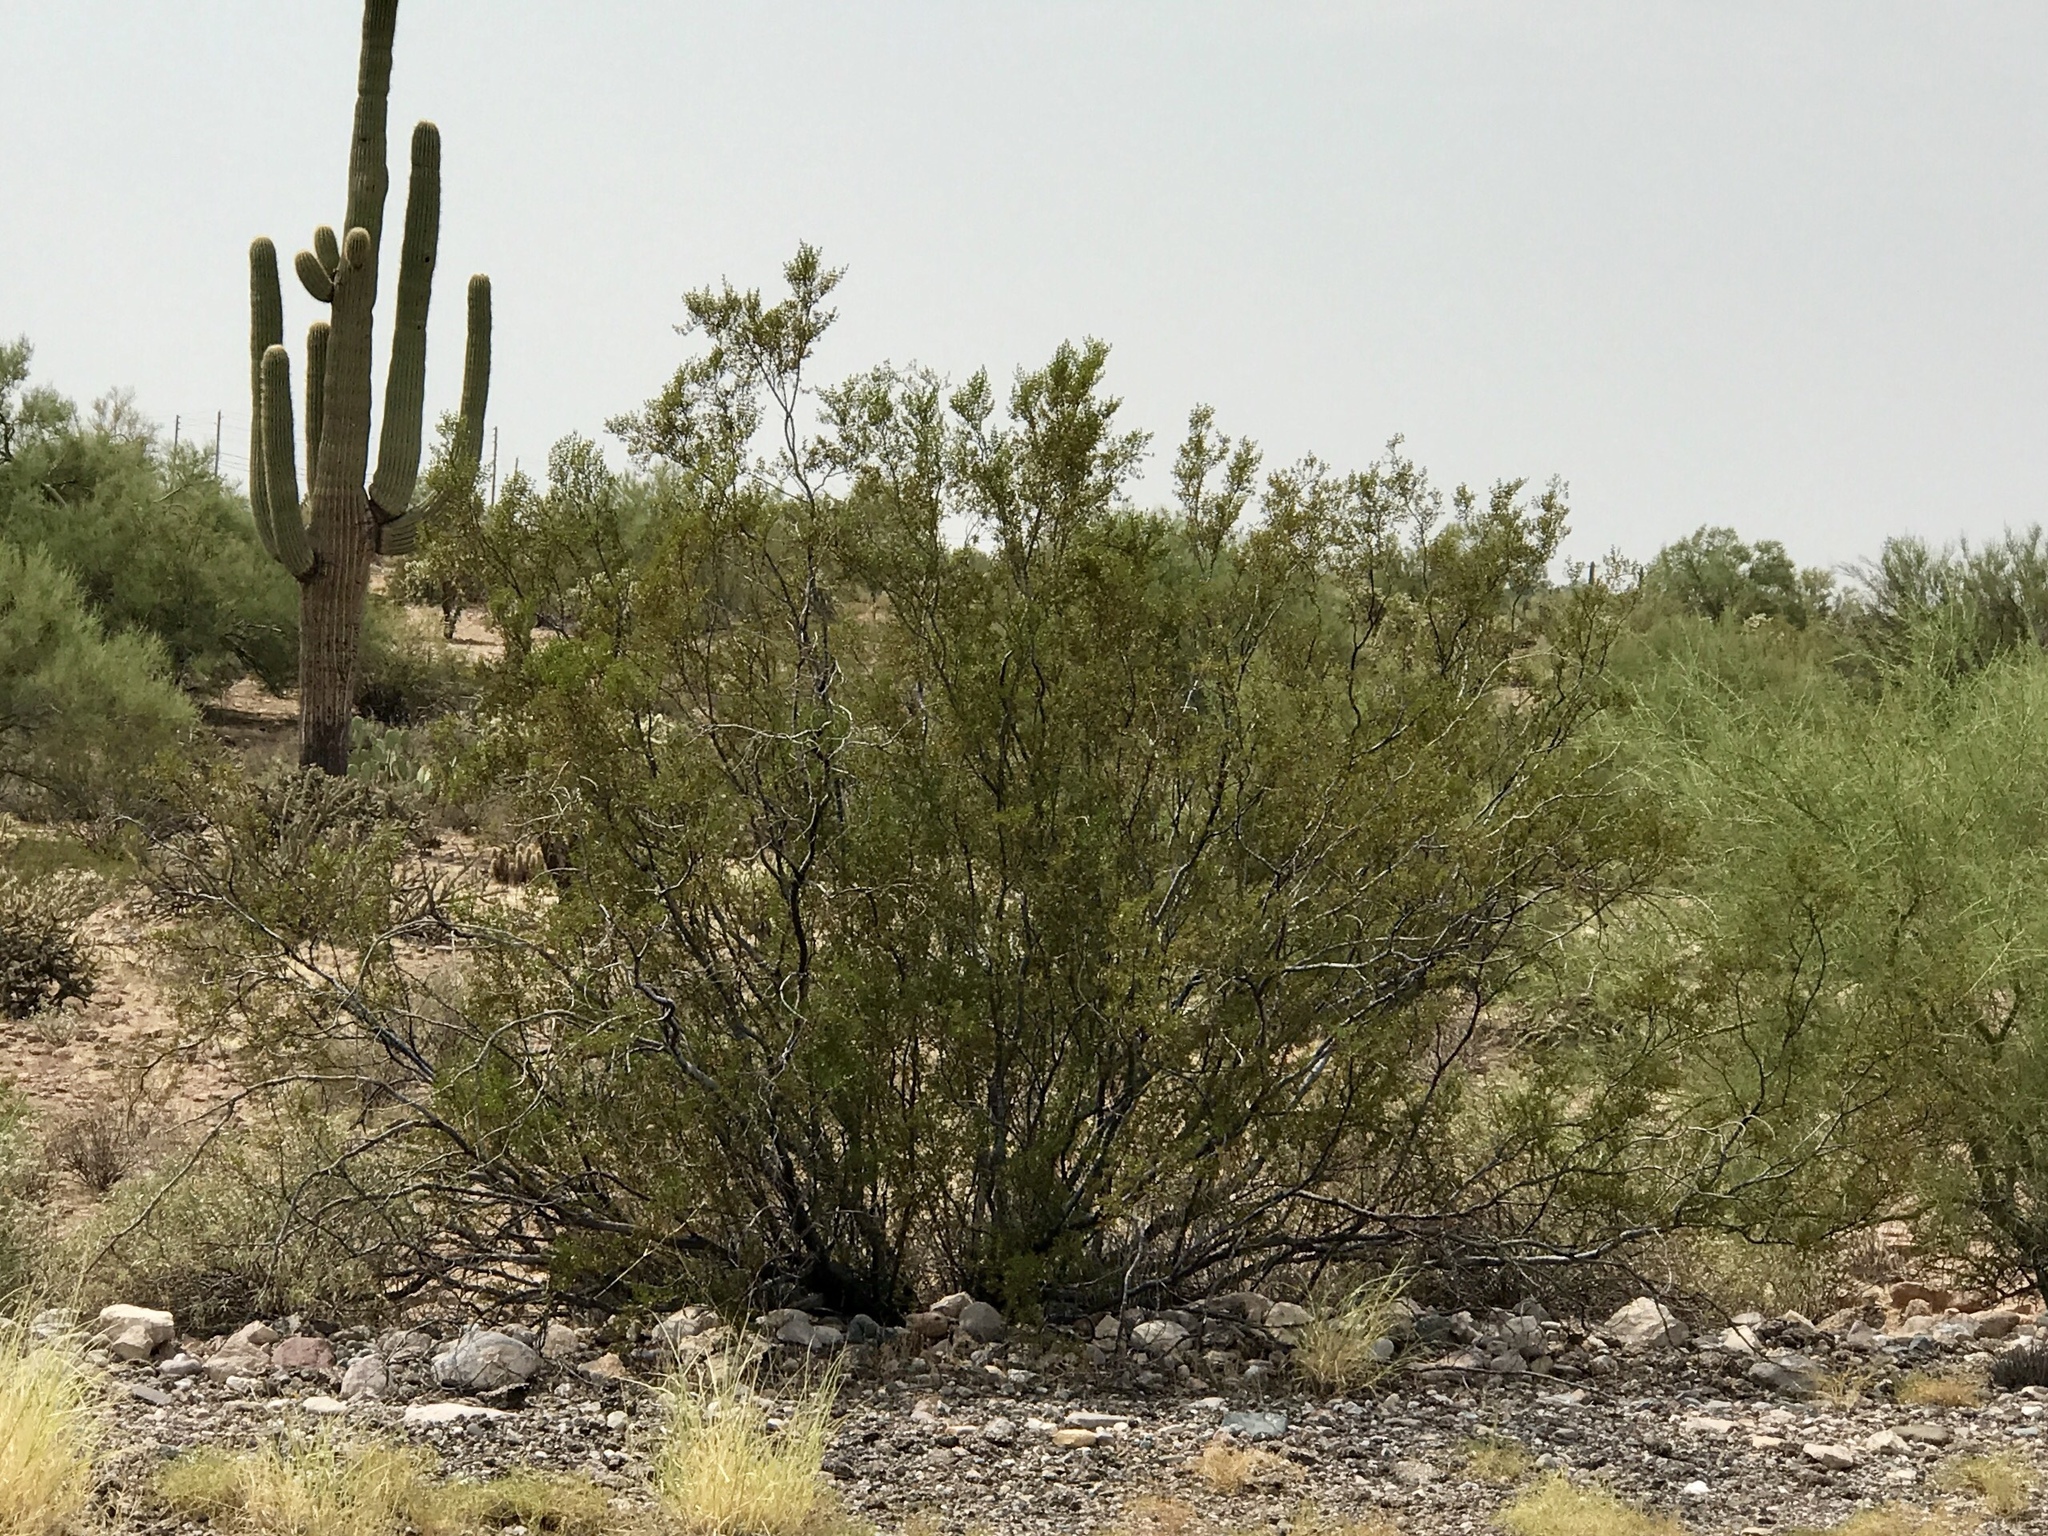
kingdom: Plantae
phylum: Tracheophyta
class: Magnoliopsida
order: Zygophyllales
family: Zygophyllaceae
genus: Larrea
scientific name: Larrea tridentata
